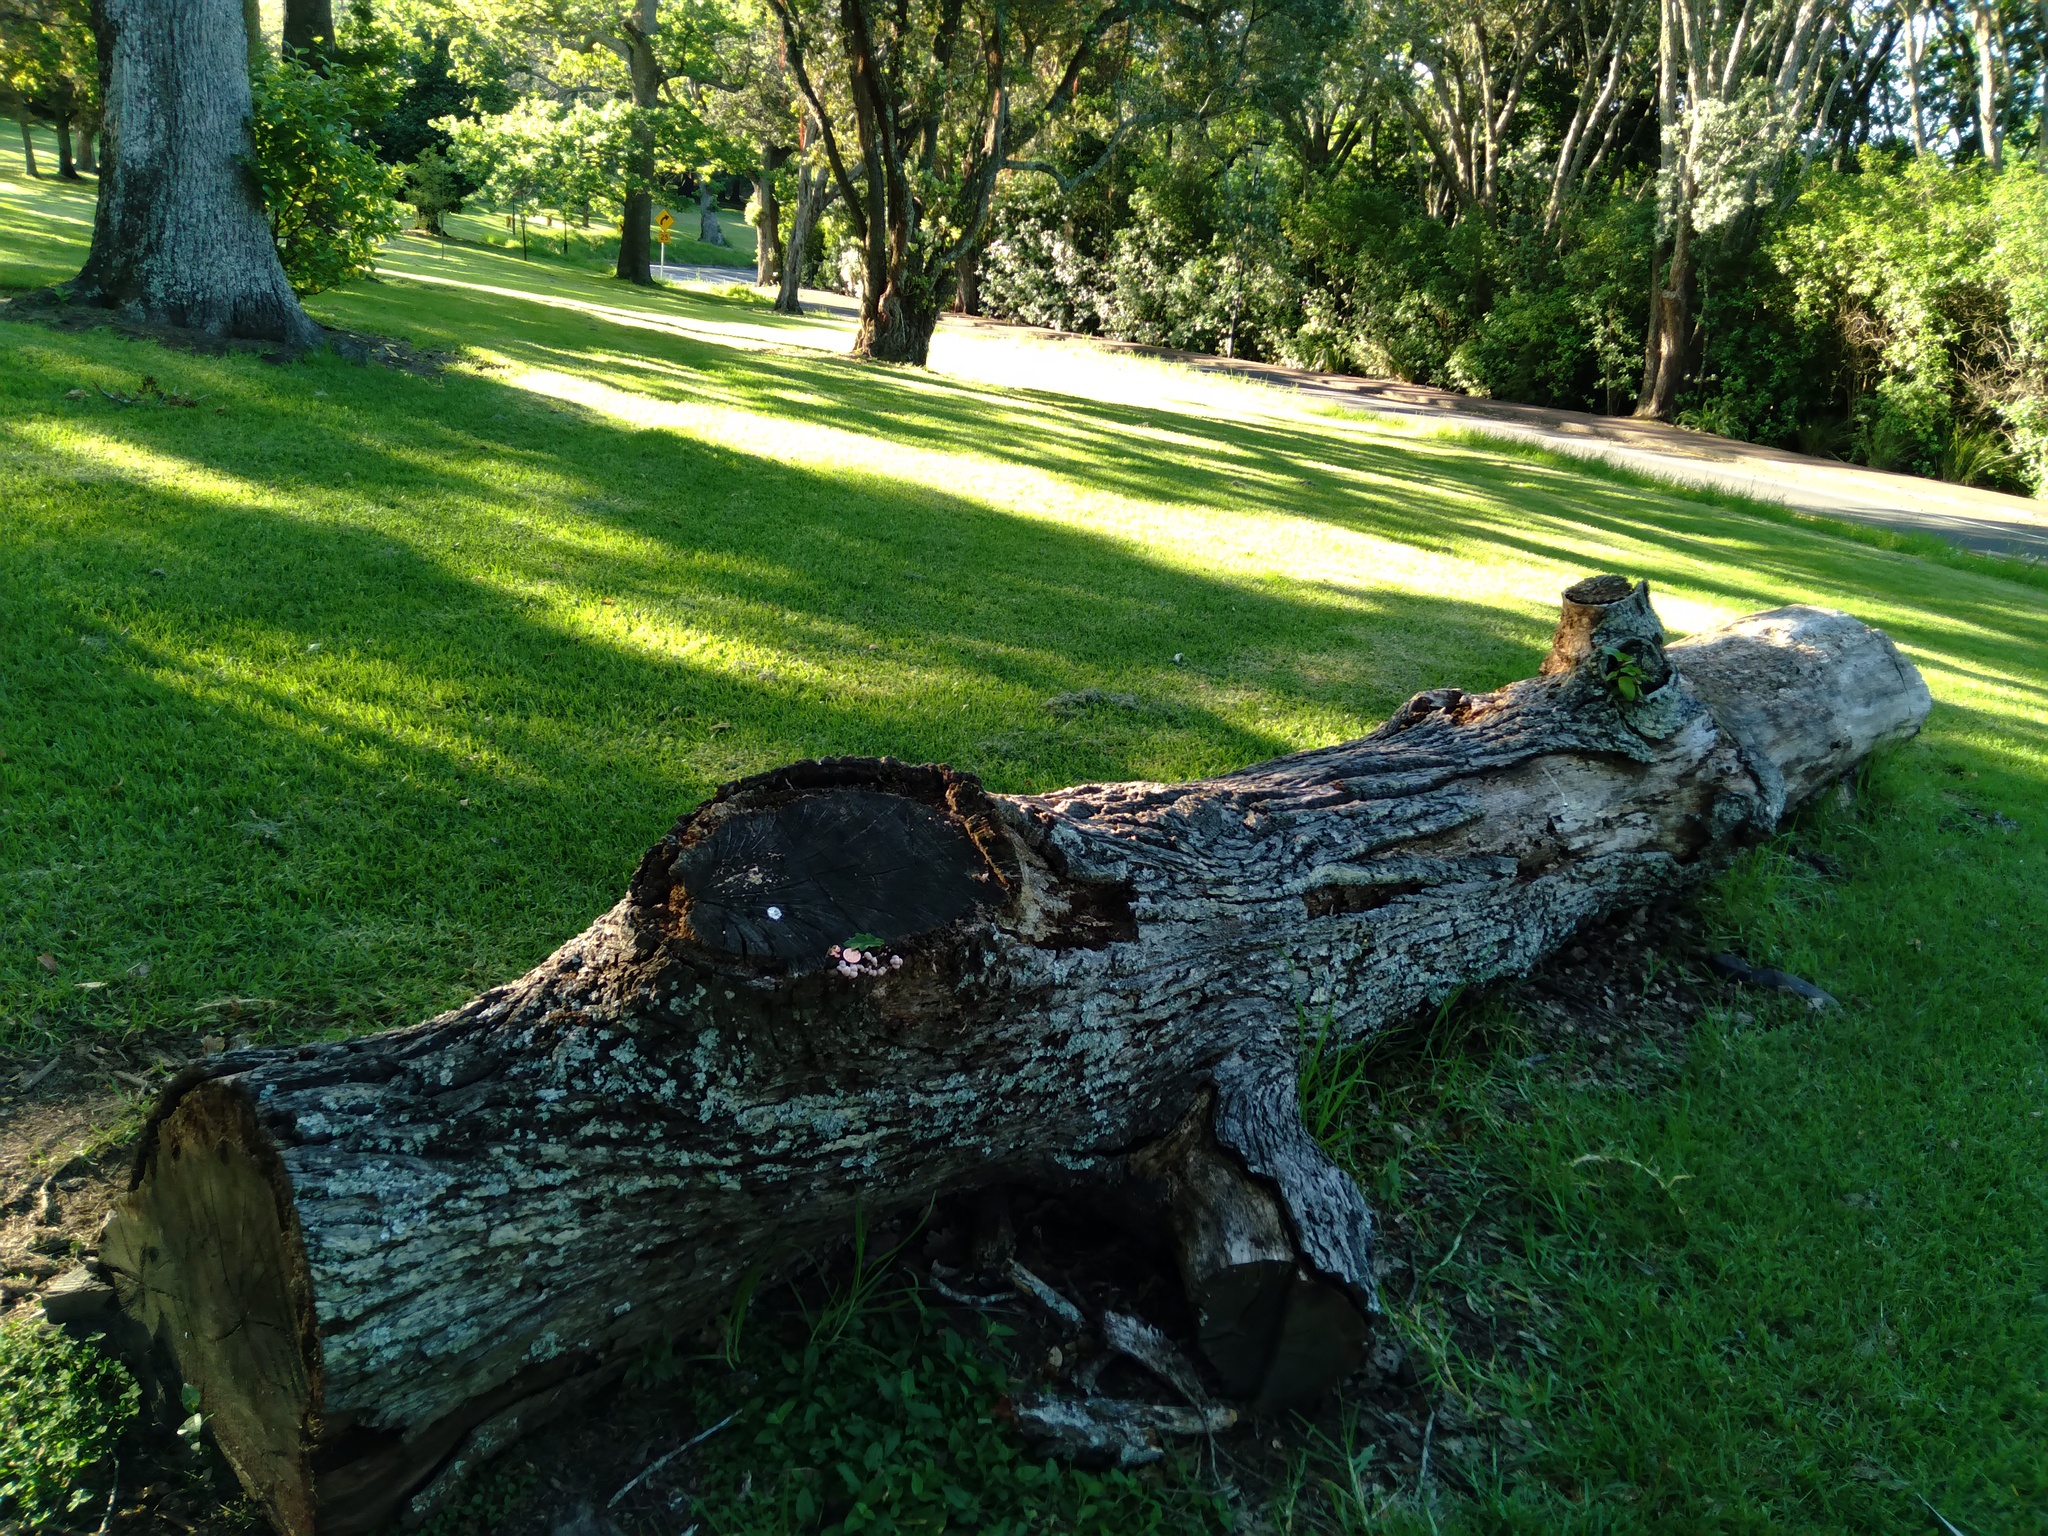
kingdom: Protozoa
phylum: Mycetozoa
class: Myxomycetes
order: Cribrariales
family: Tubiferaceae
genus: Lycogala
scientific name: Lycogala epidendrum
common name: Wolf's milk
